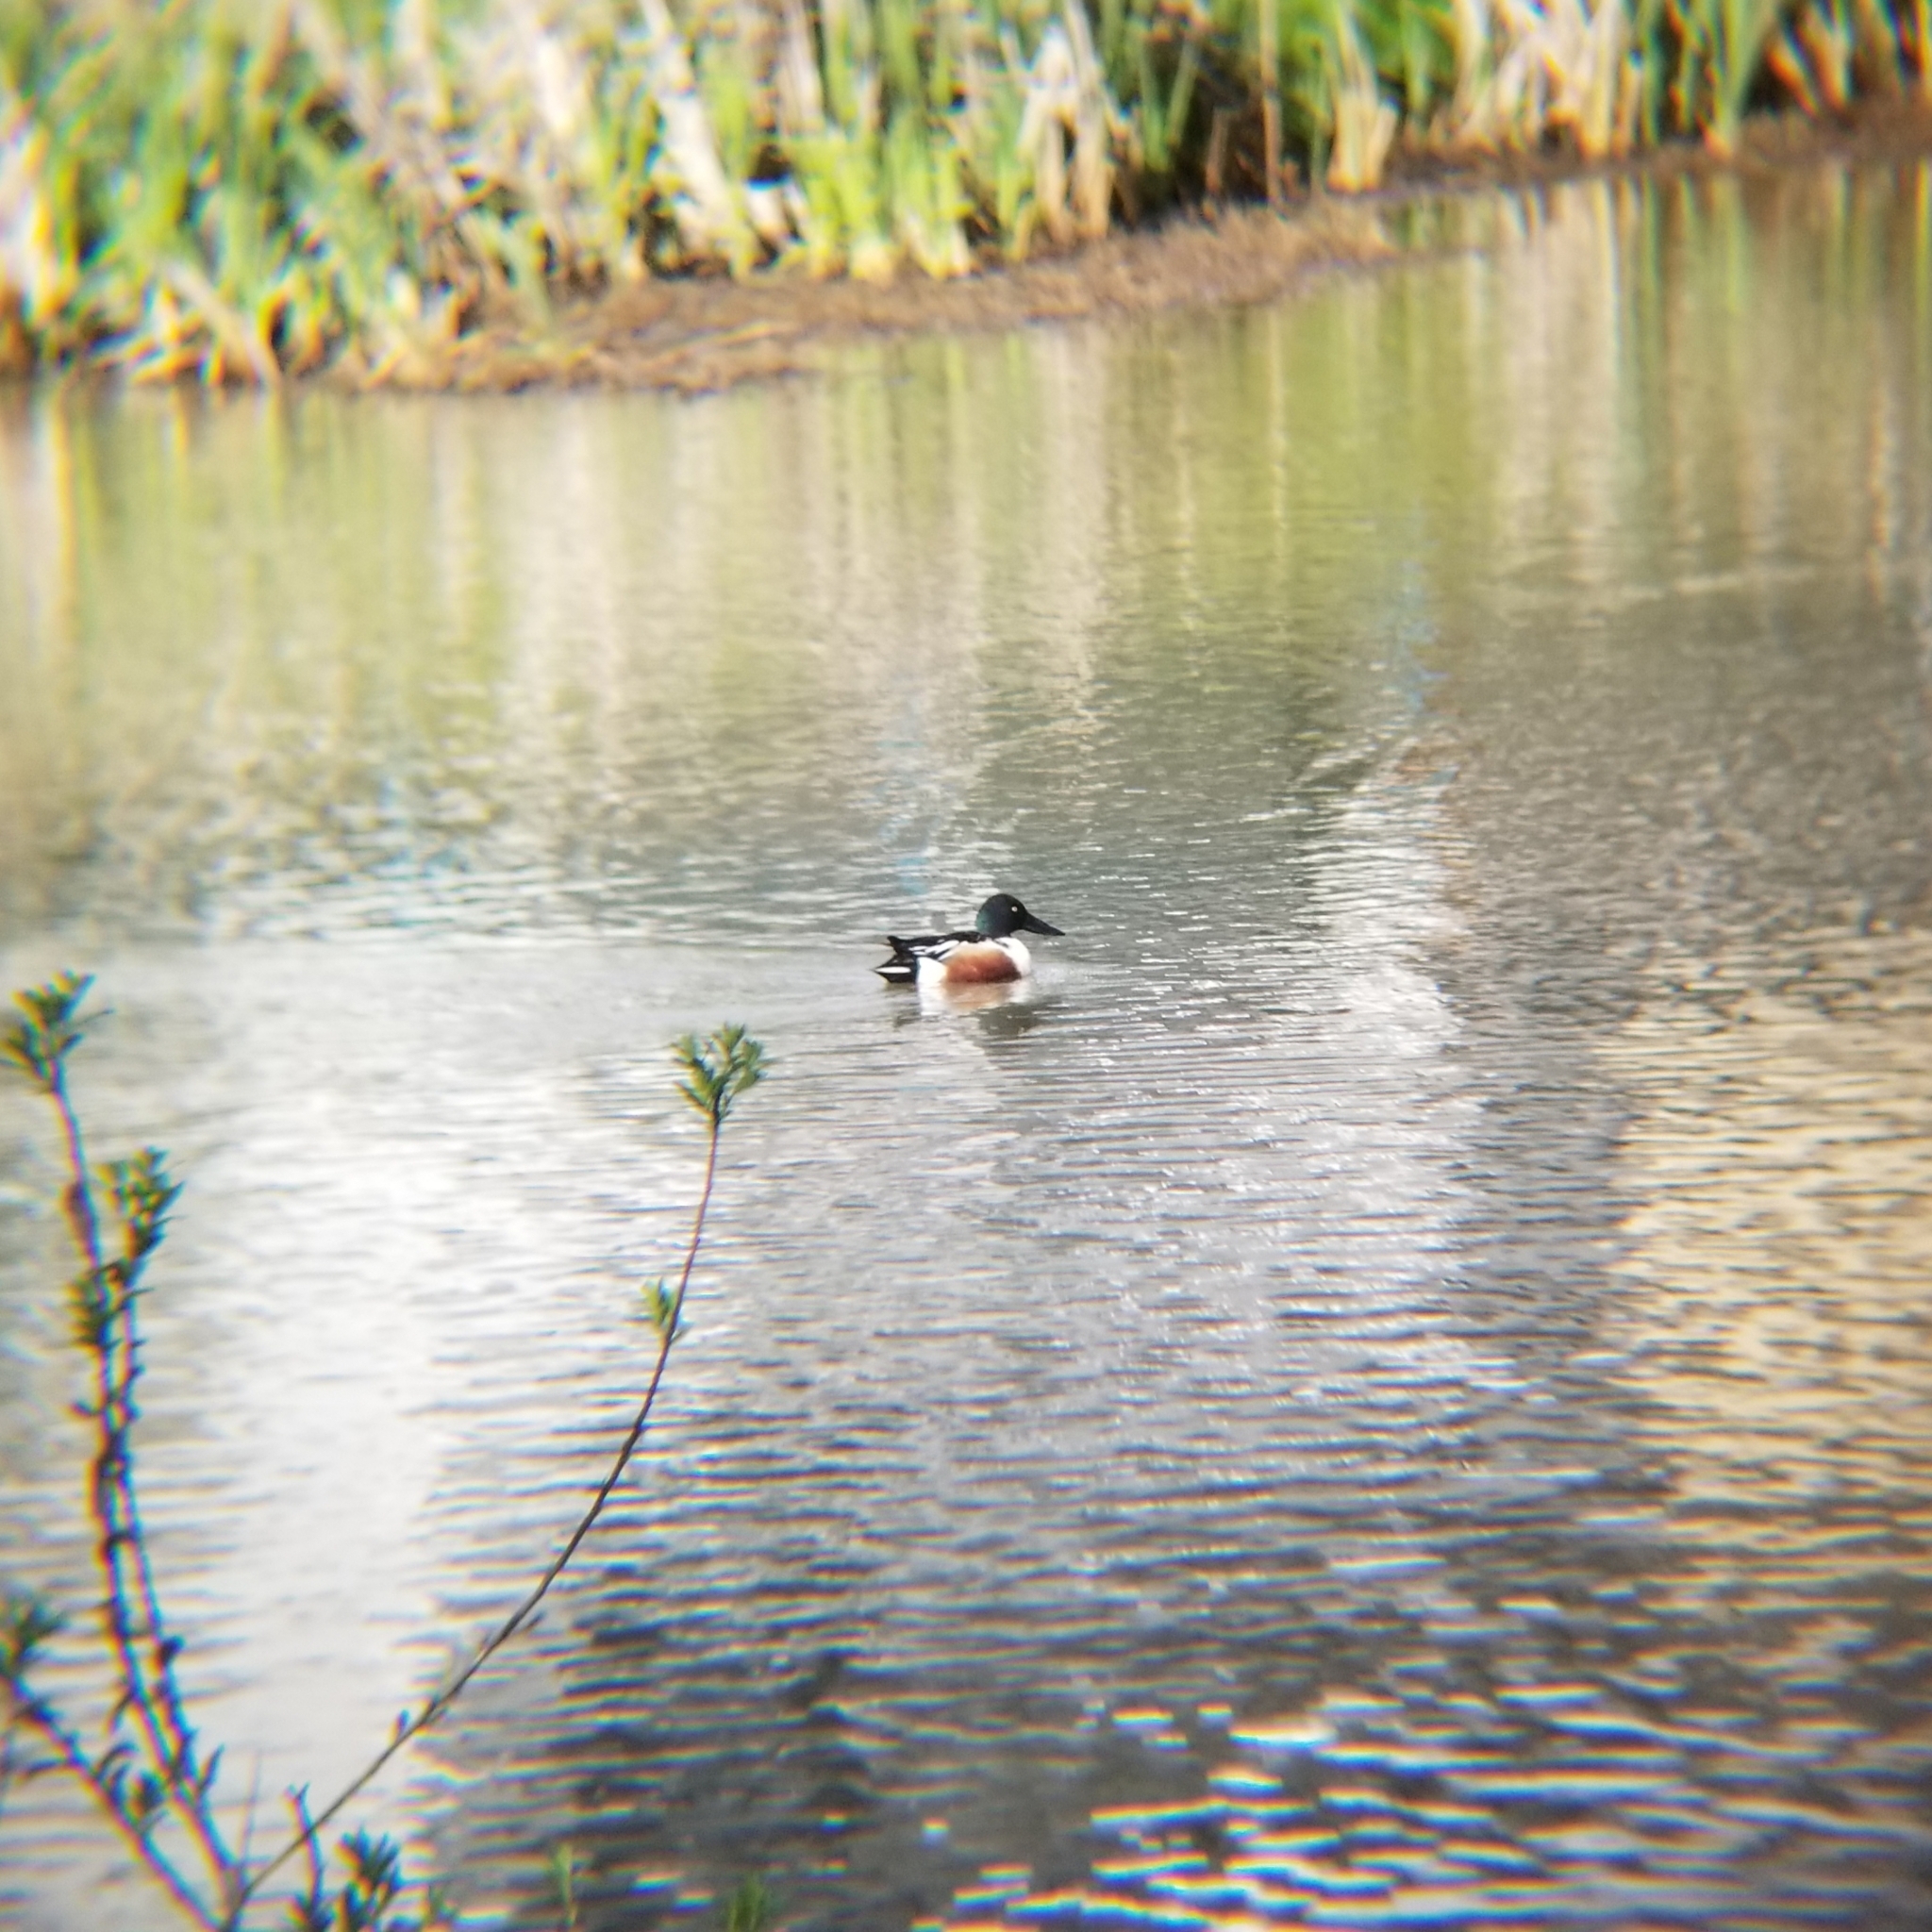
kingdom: Animalia
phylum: Chordata
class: Aves
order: Anseriformes
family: Anatidae
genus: Spatula
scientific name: Spatula clypeata
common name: Northern shoveler
